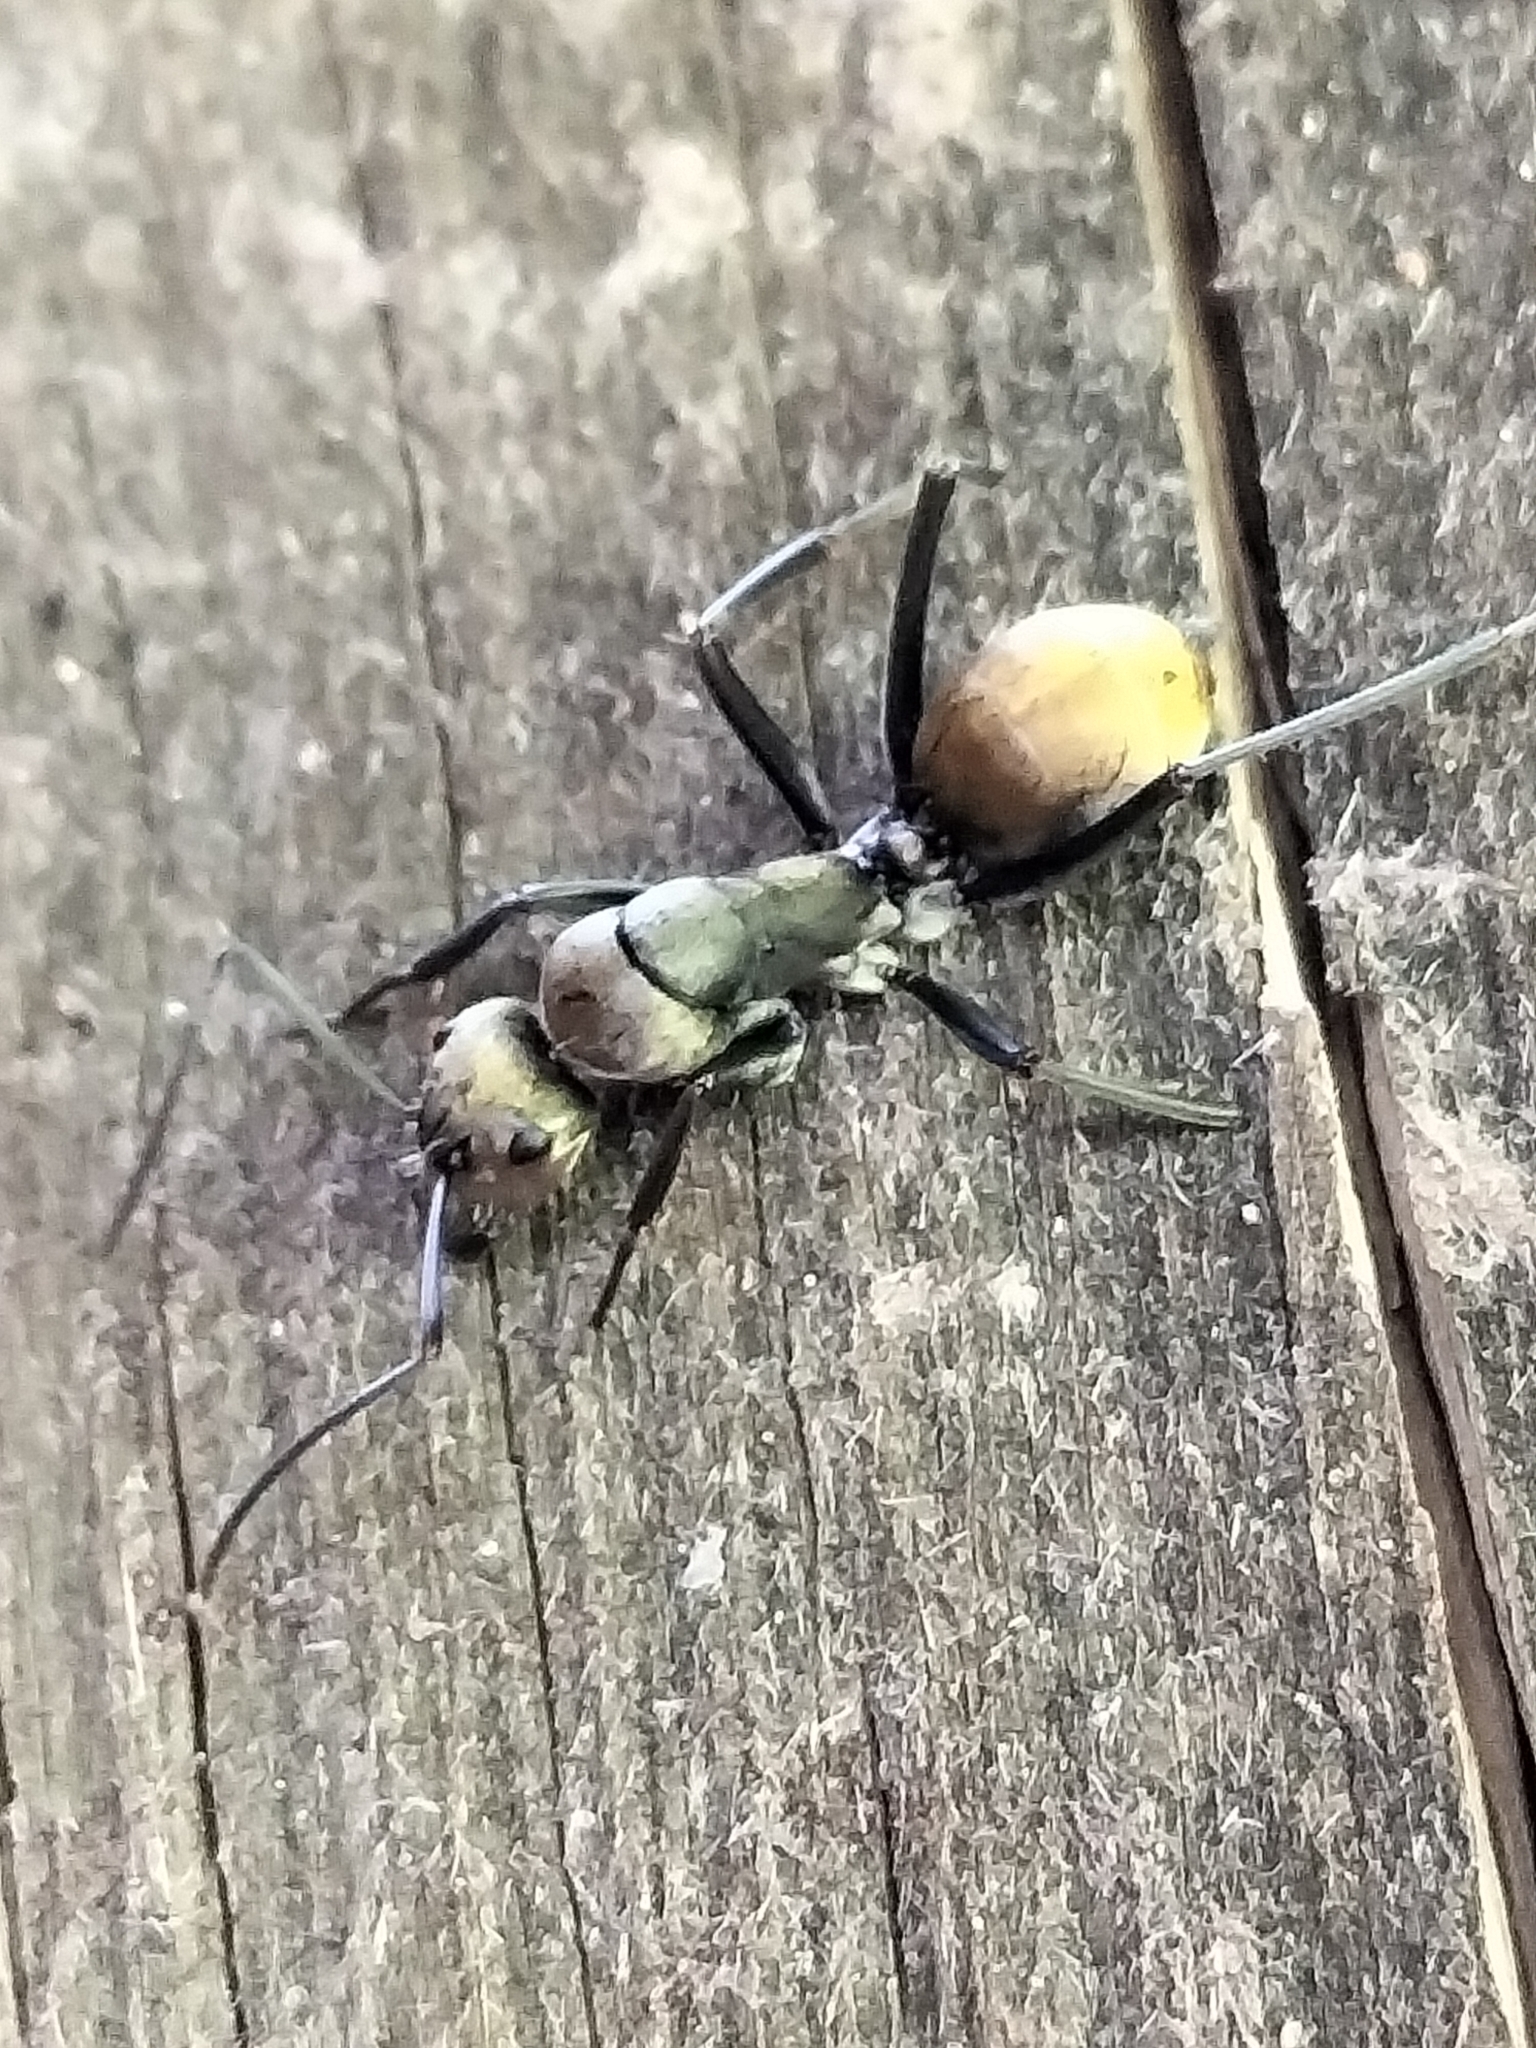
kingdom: Animalia
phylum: Arthropoda
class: Insecta
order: Hymenoptera
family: Formicidae
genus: Camponotus
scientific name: Camponotus bigenus
